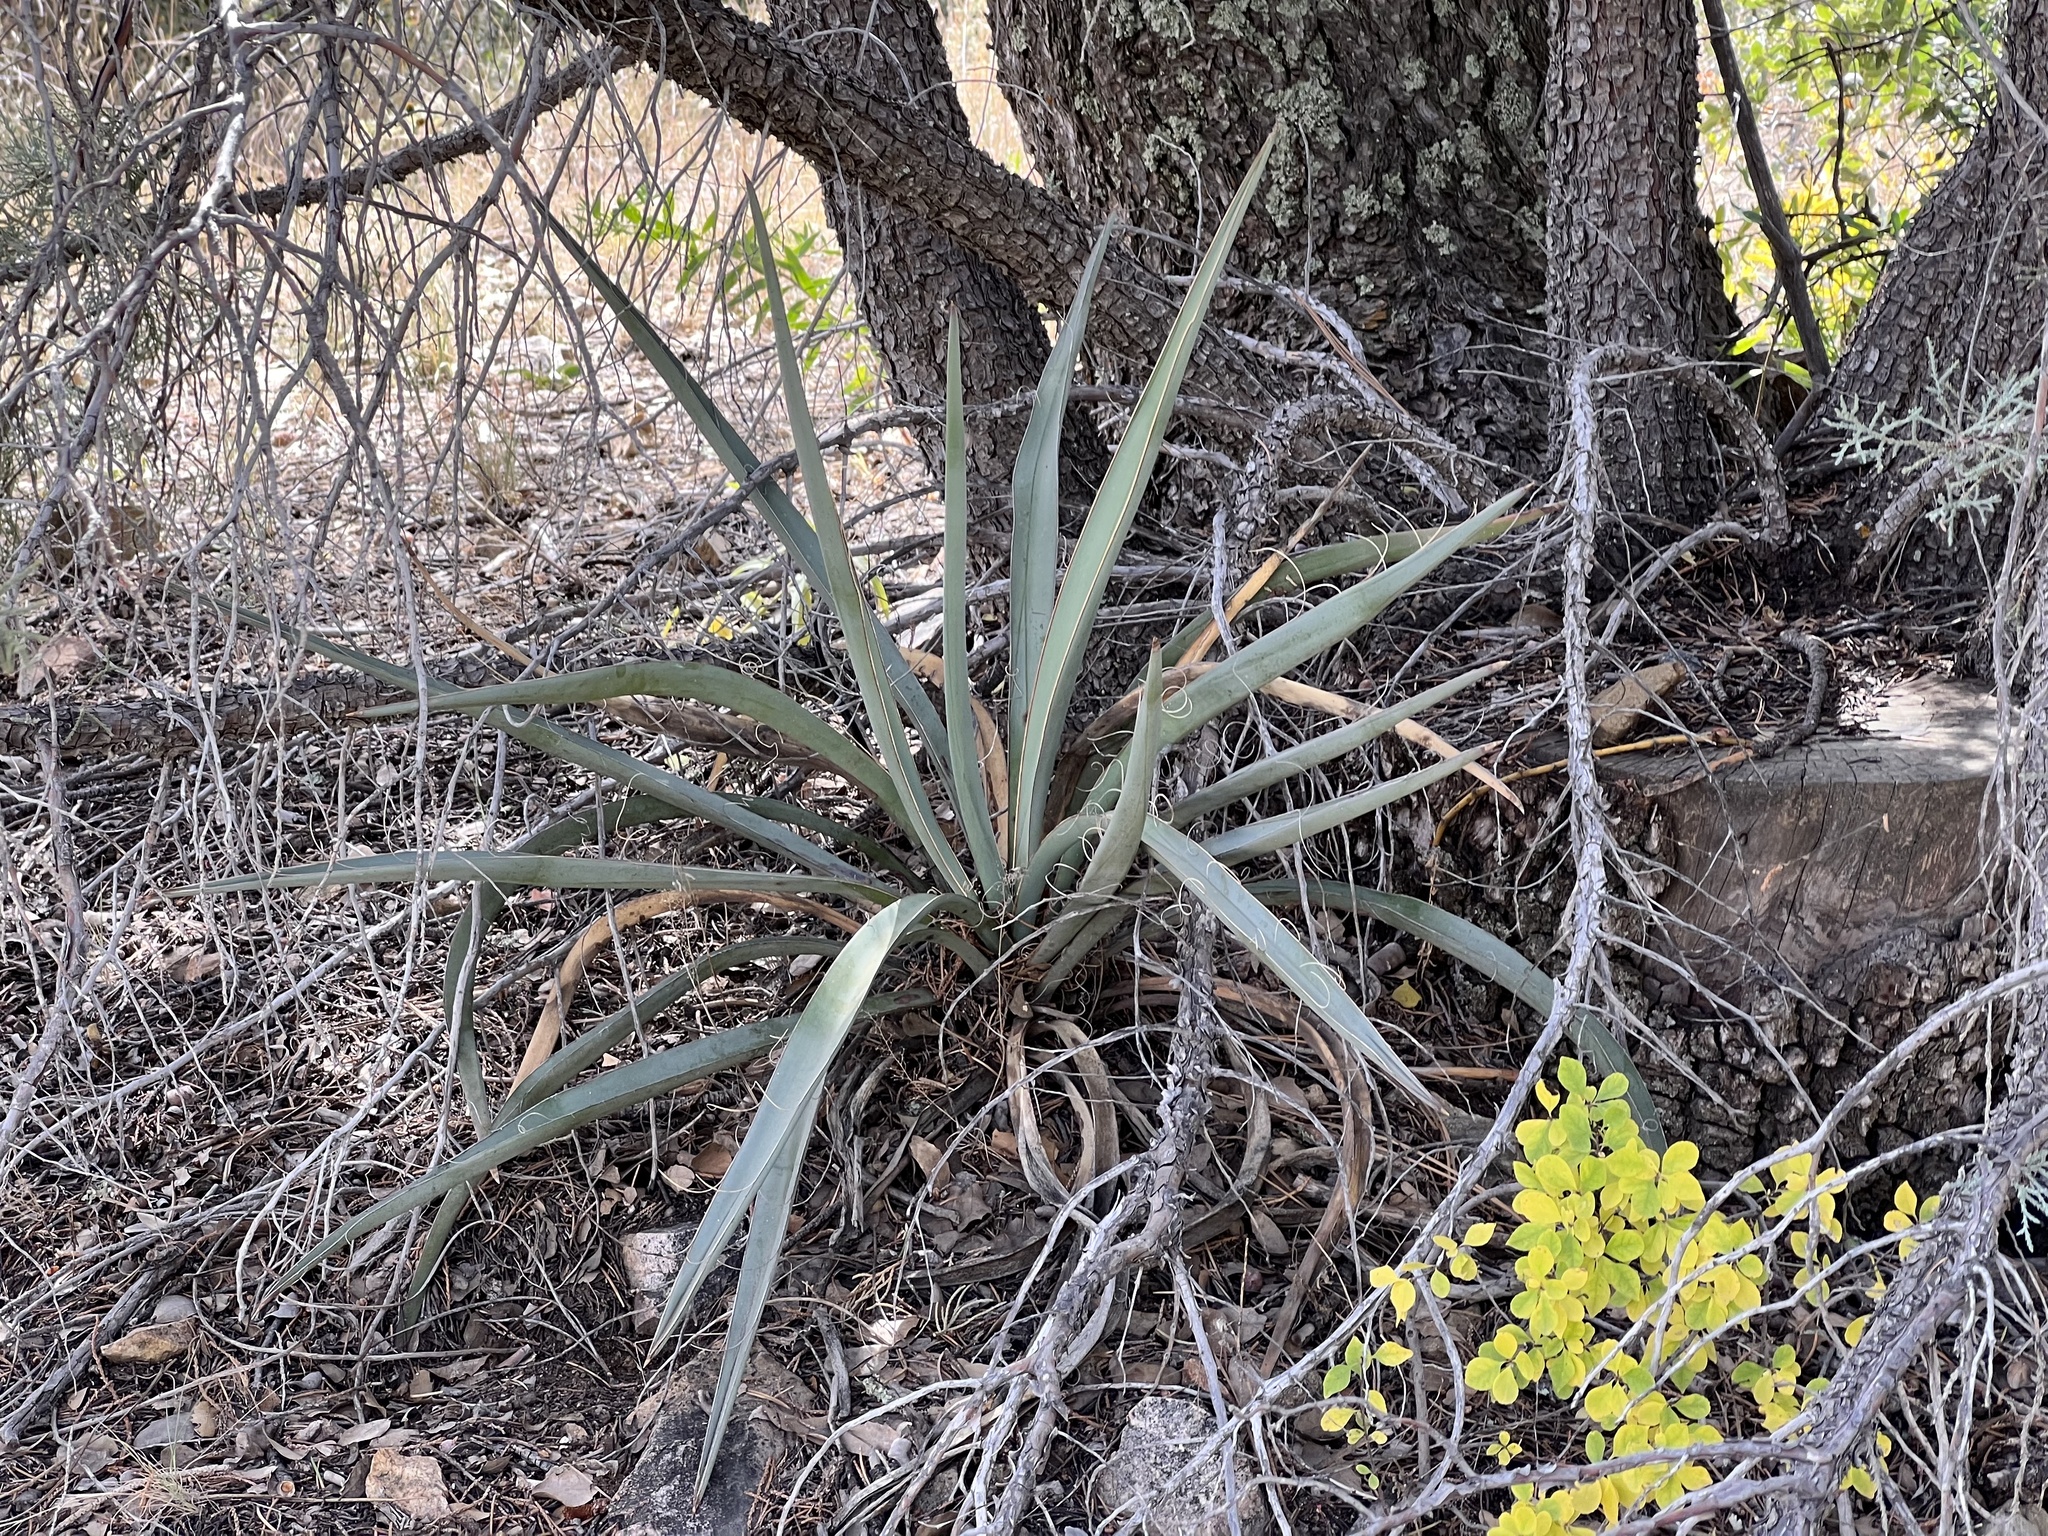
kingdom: Plantae
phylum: Tracheophyta
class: Liliopsida
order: Asparagales
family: Asparagaceae
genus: Yucca
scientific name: Yucca baccata
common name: Banana yucca
